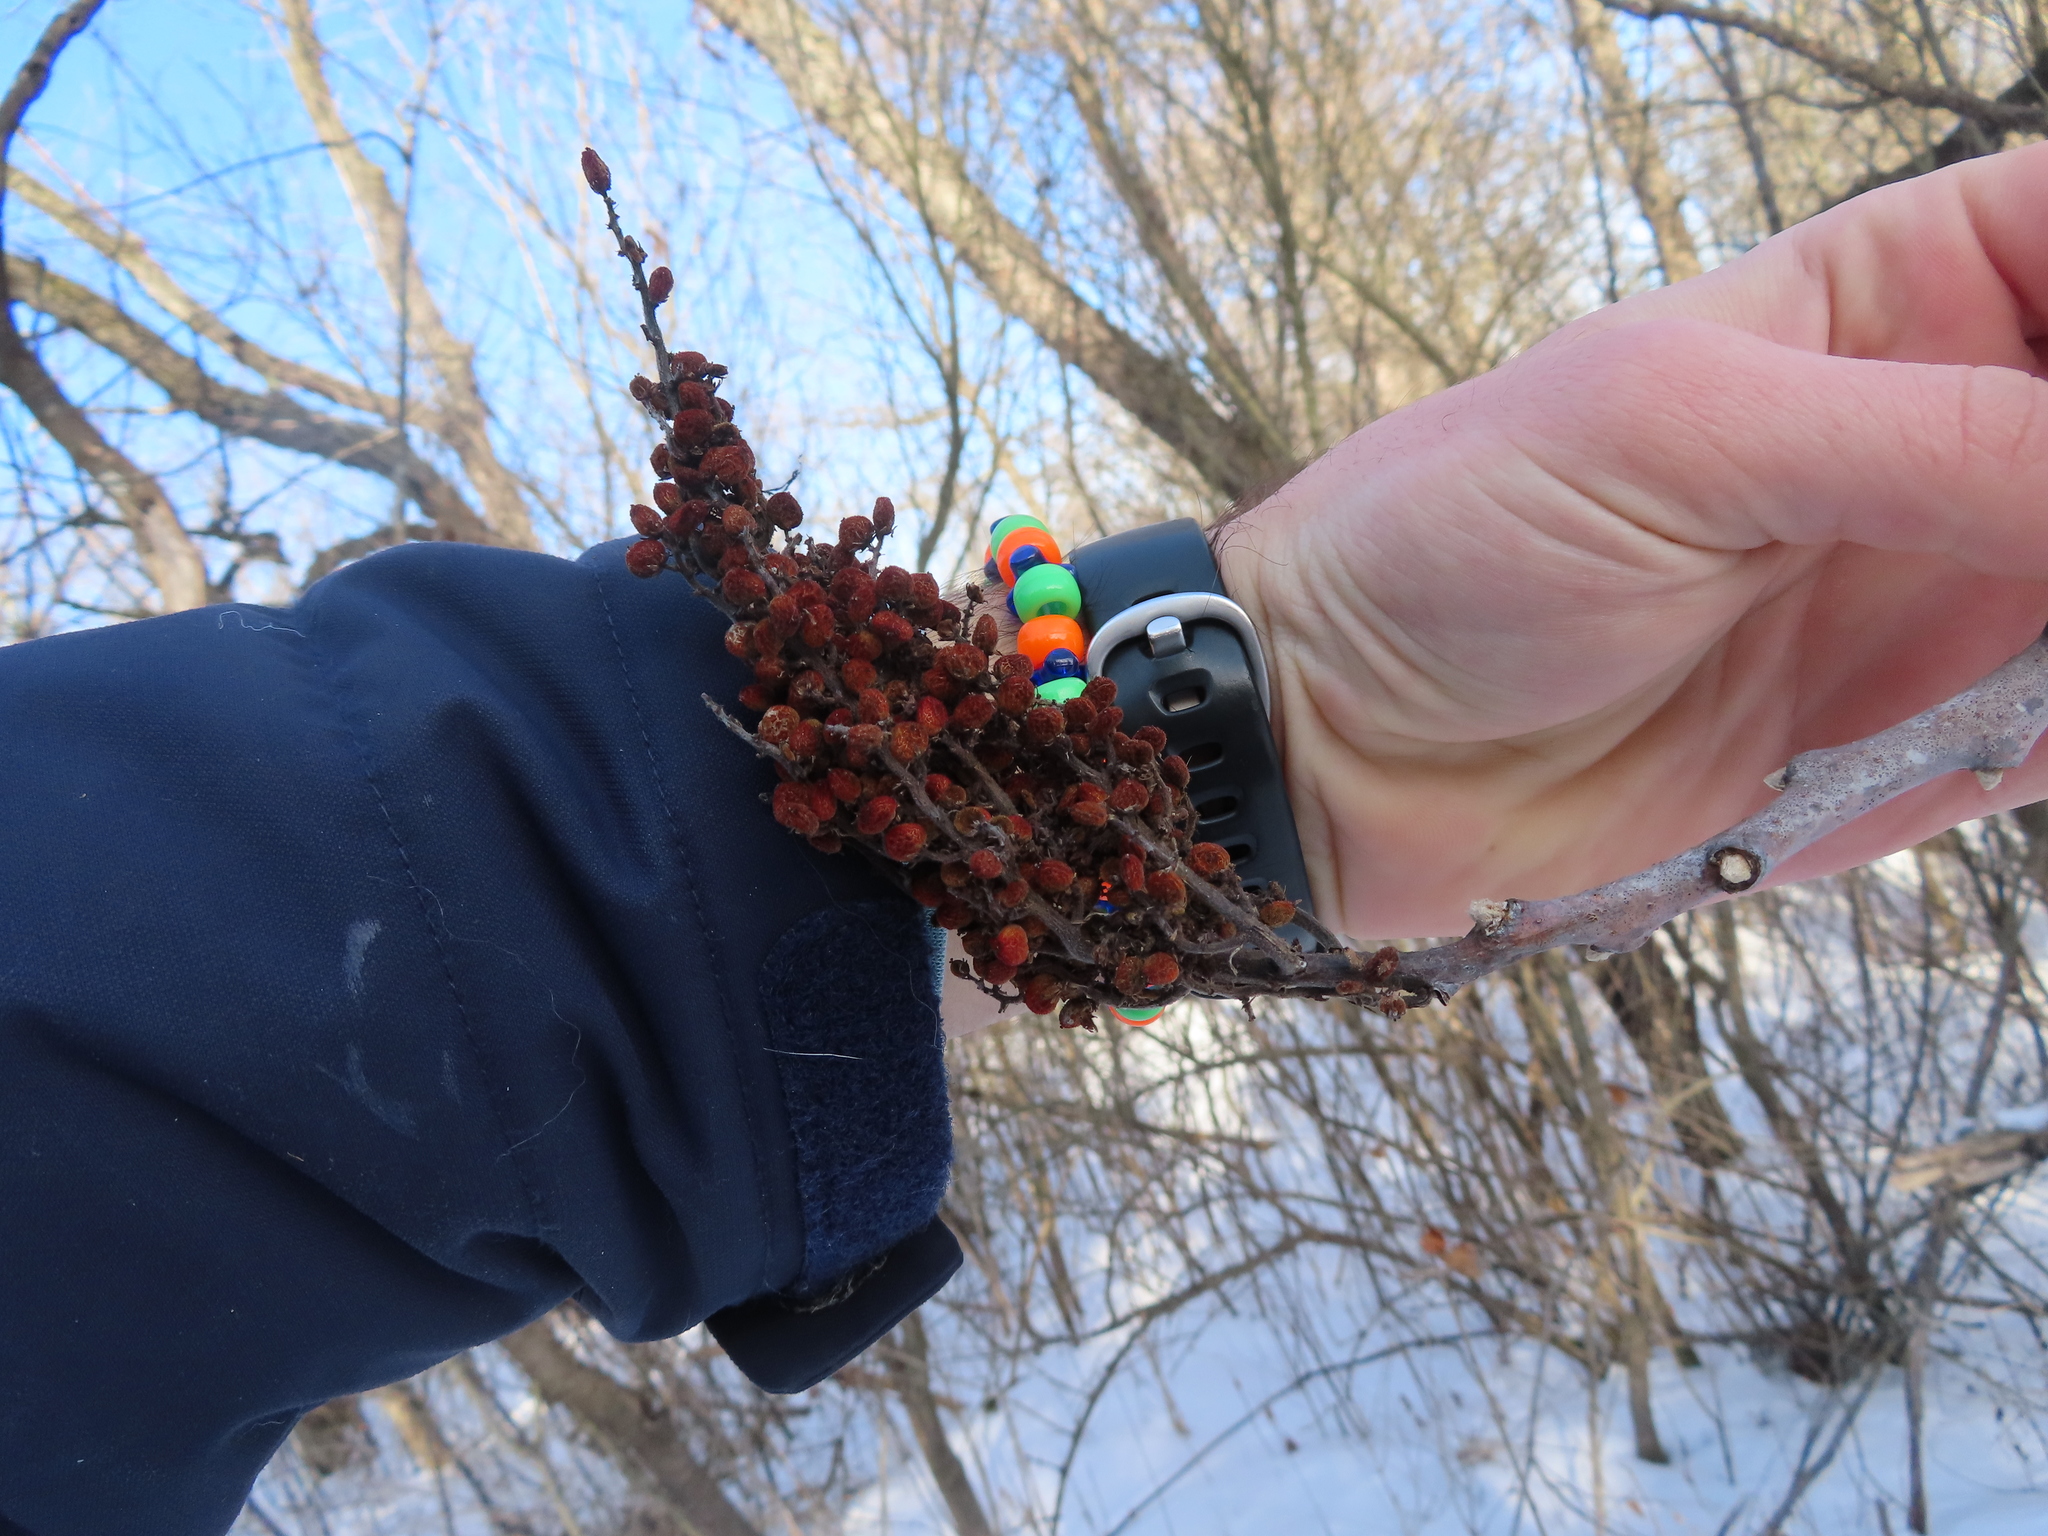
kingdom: Plantae
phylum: Tracheophyta
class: Magnoliopsida
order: Sapindales
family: Anacardiaceae
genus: Rhus
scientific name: Rhus glabra
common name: Scarlet sumac
